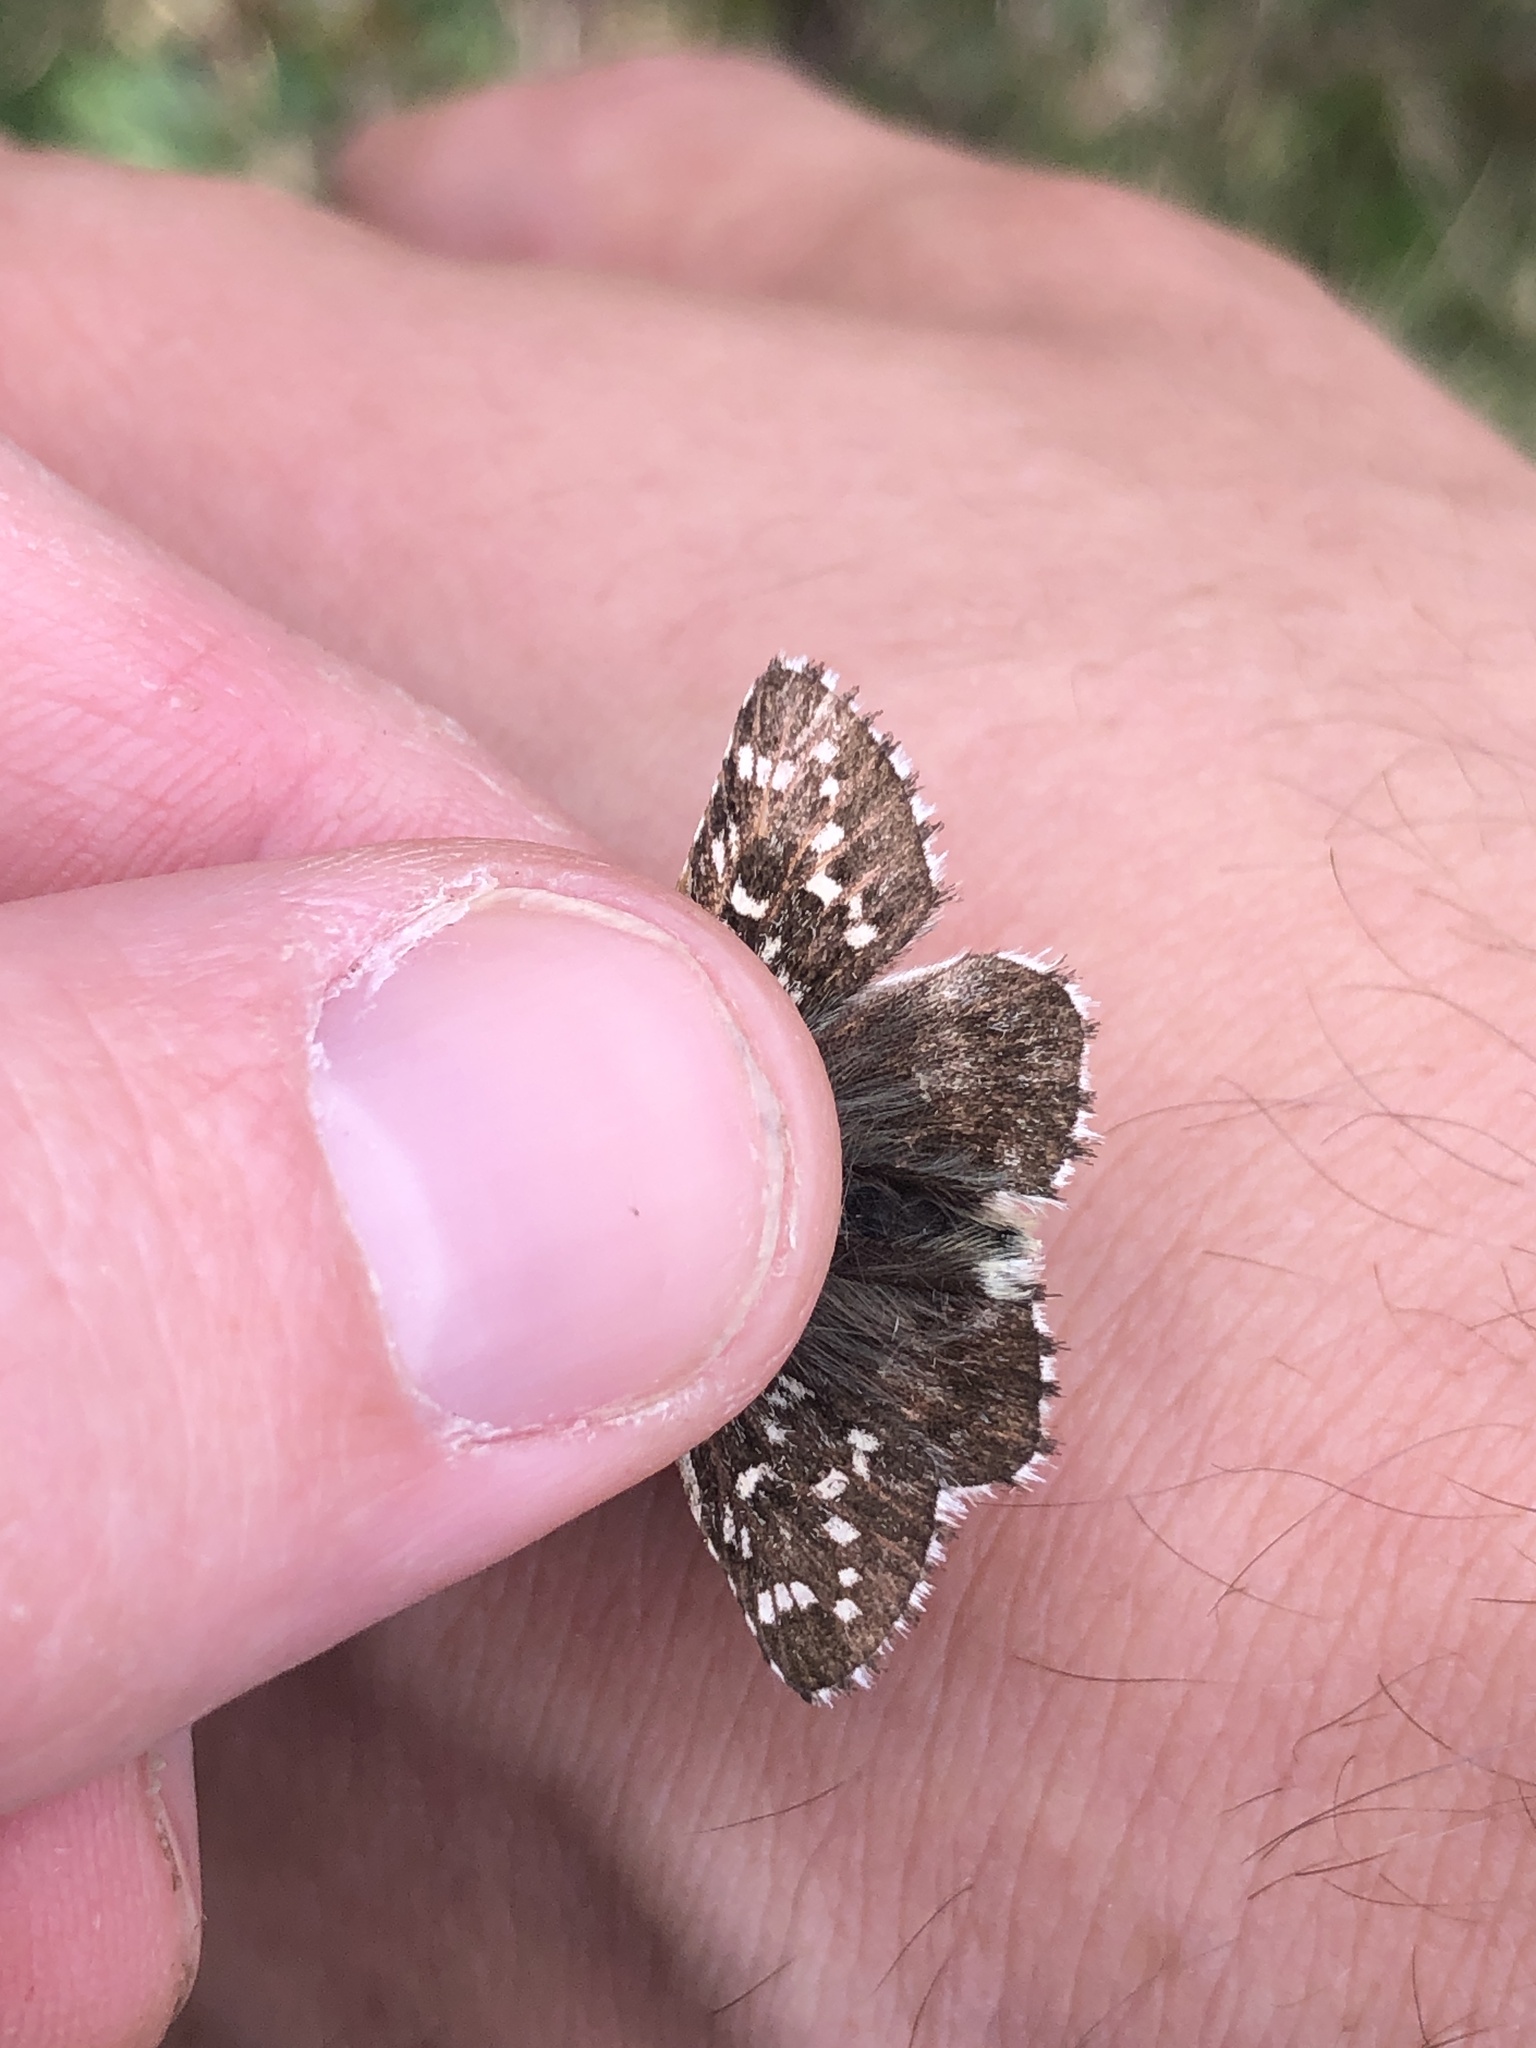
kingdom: Animalia
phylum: Arthropoda
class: Insecta
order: Lepidoptera
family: Hesperiidae
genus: Pyrgus
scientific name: Pyrgus andromedae
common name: Alpine grizzled skipper
